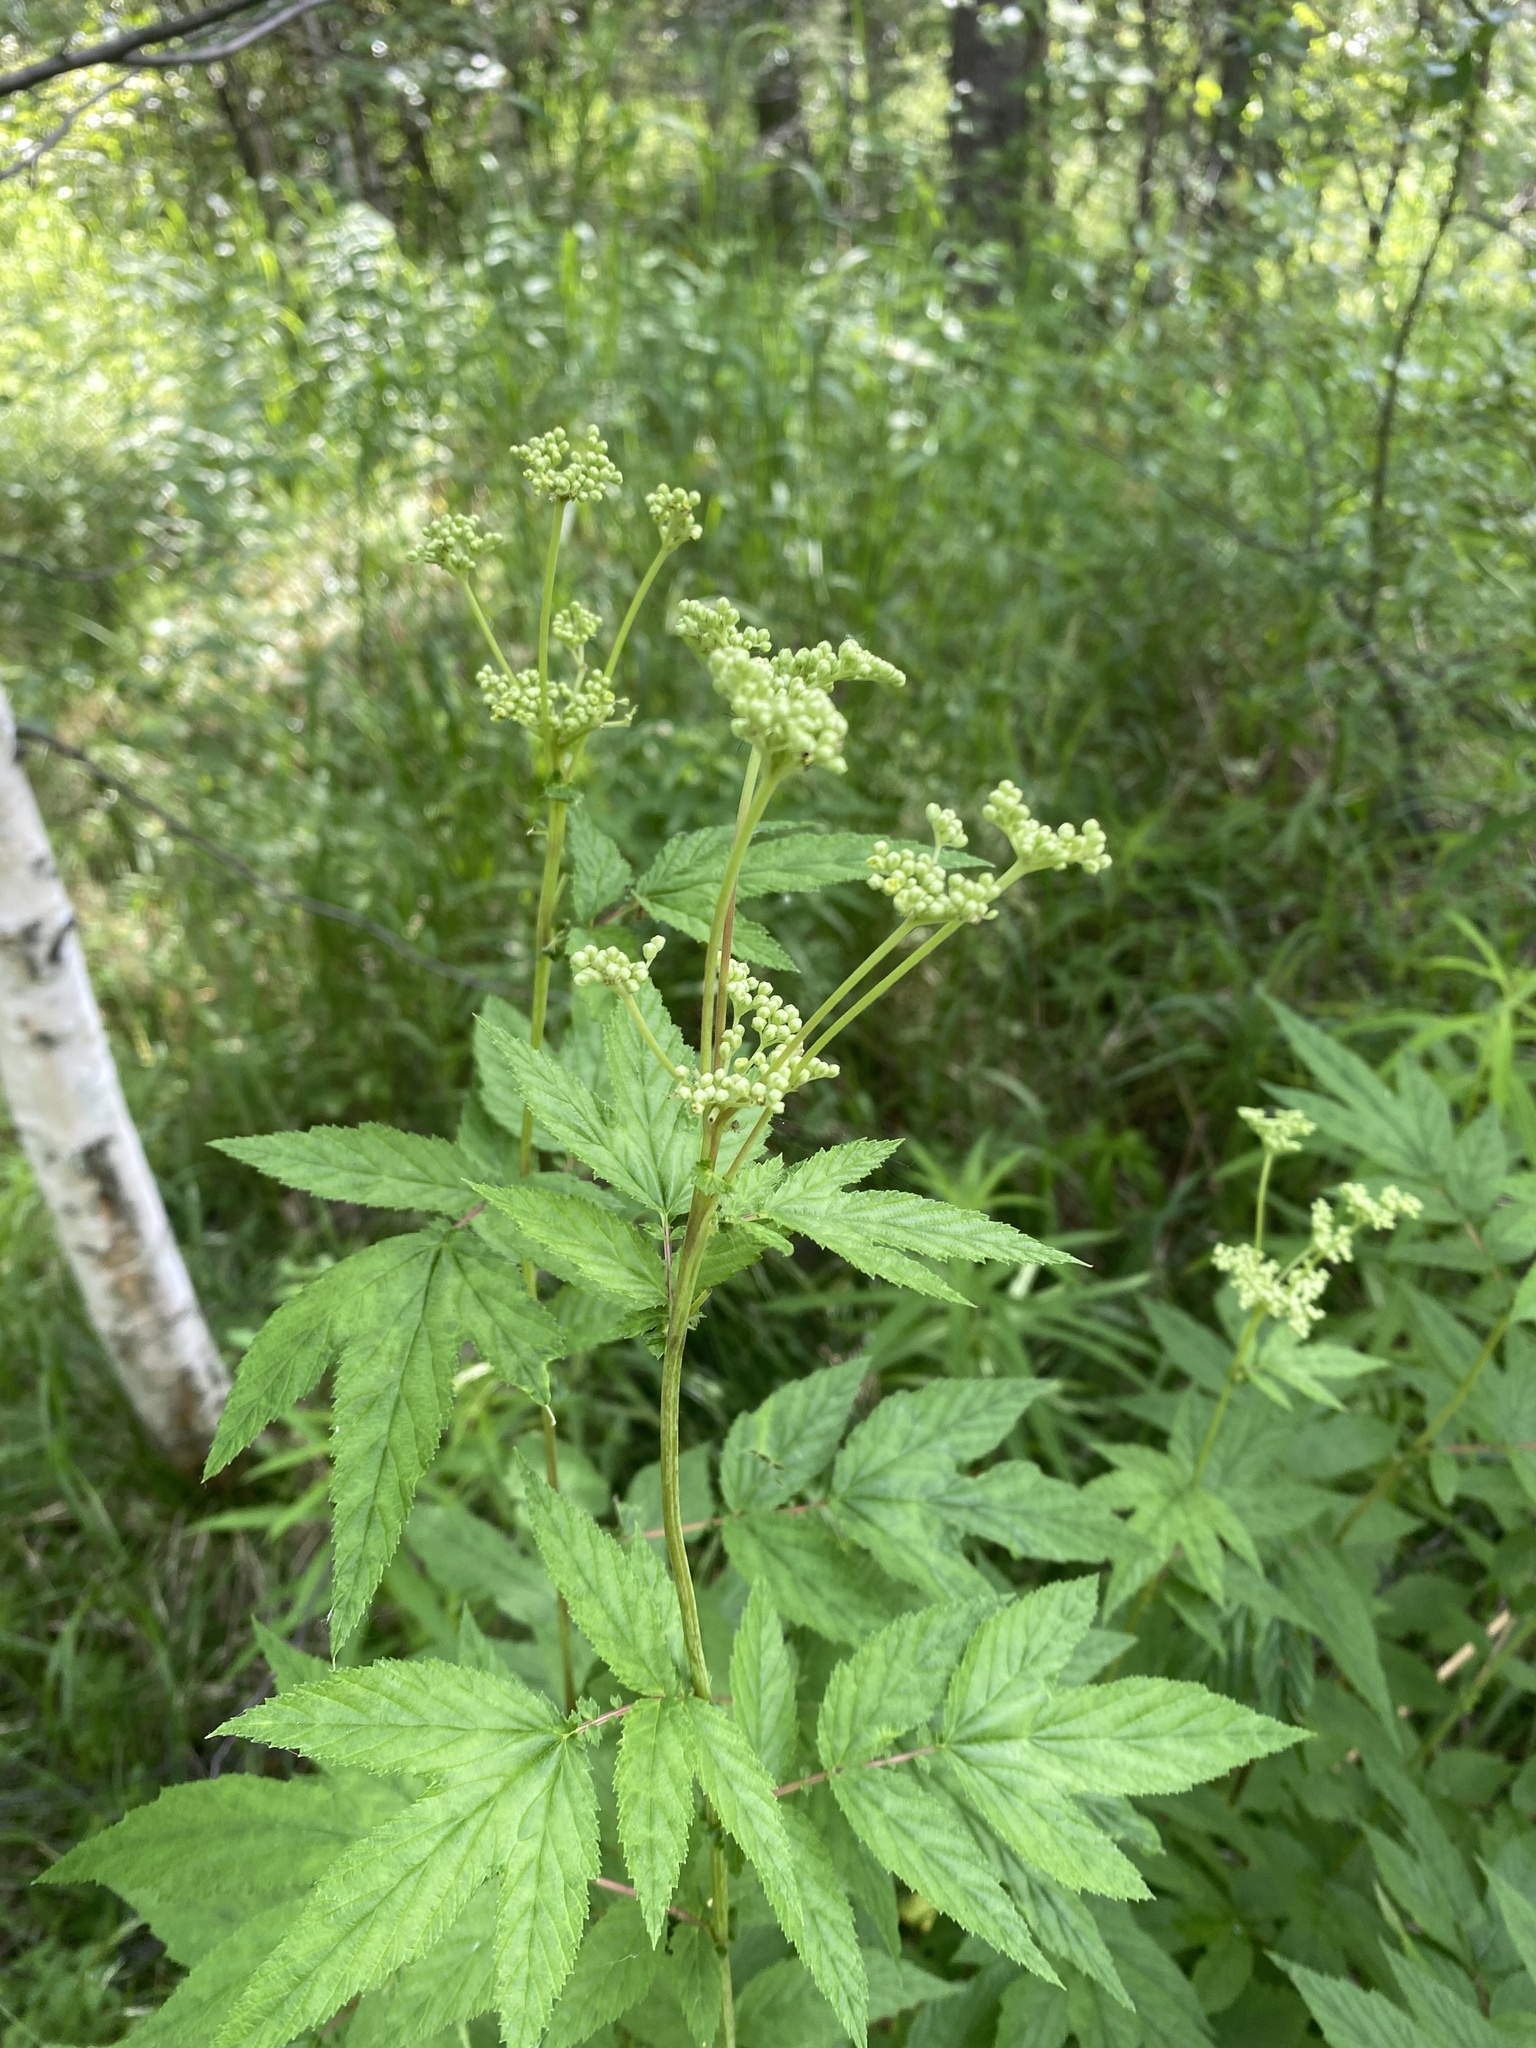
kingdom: Plantae
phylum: Tracheophyta
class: Magnoliopsida
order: Rosales
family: Rosaceae
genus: Filipendula
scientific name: Filipendula ulmaria
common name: Meadowsweet
